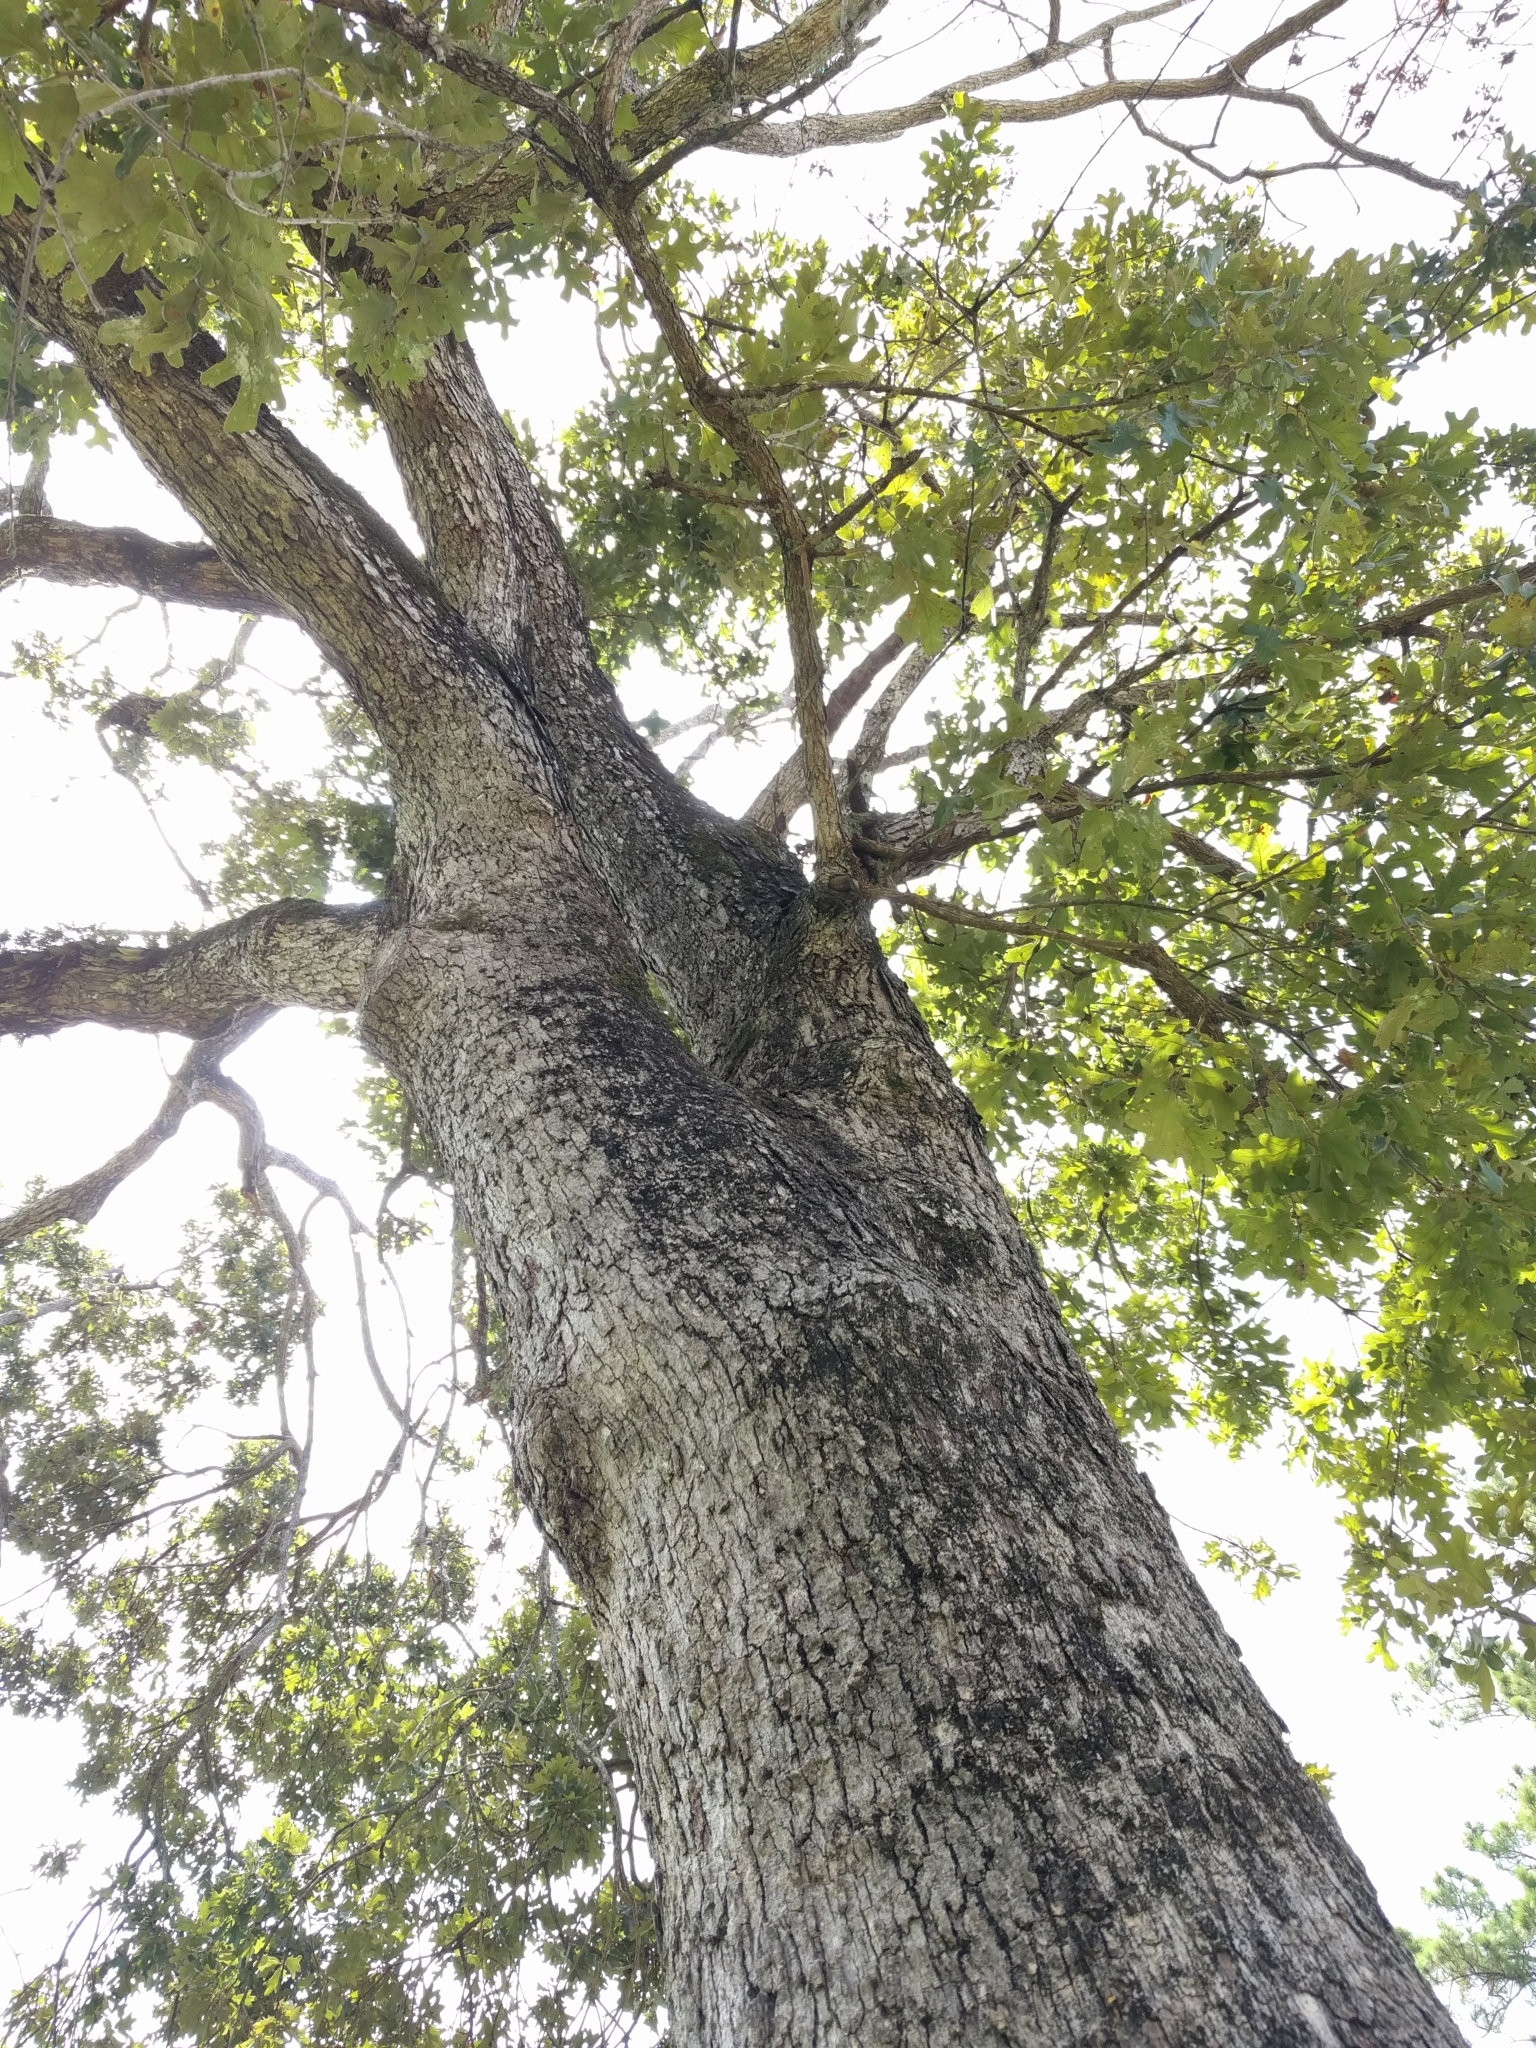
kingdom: Plantae
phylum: Tracheophyta
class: Magnoliopsida
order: Fagales
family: Fagaceae
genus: Quercus
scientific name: Quercus stellata
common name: Post oak
